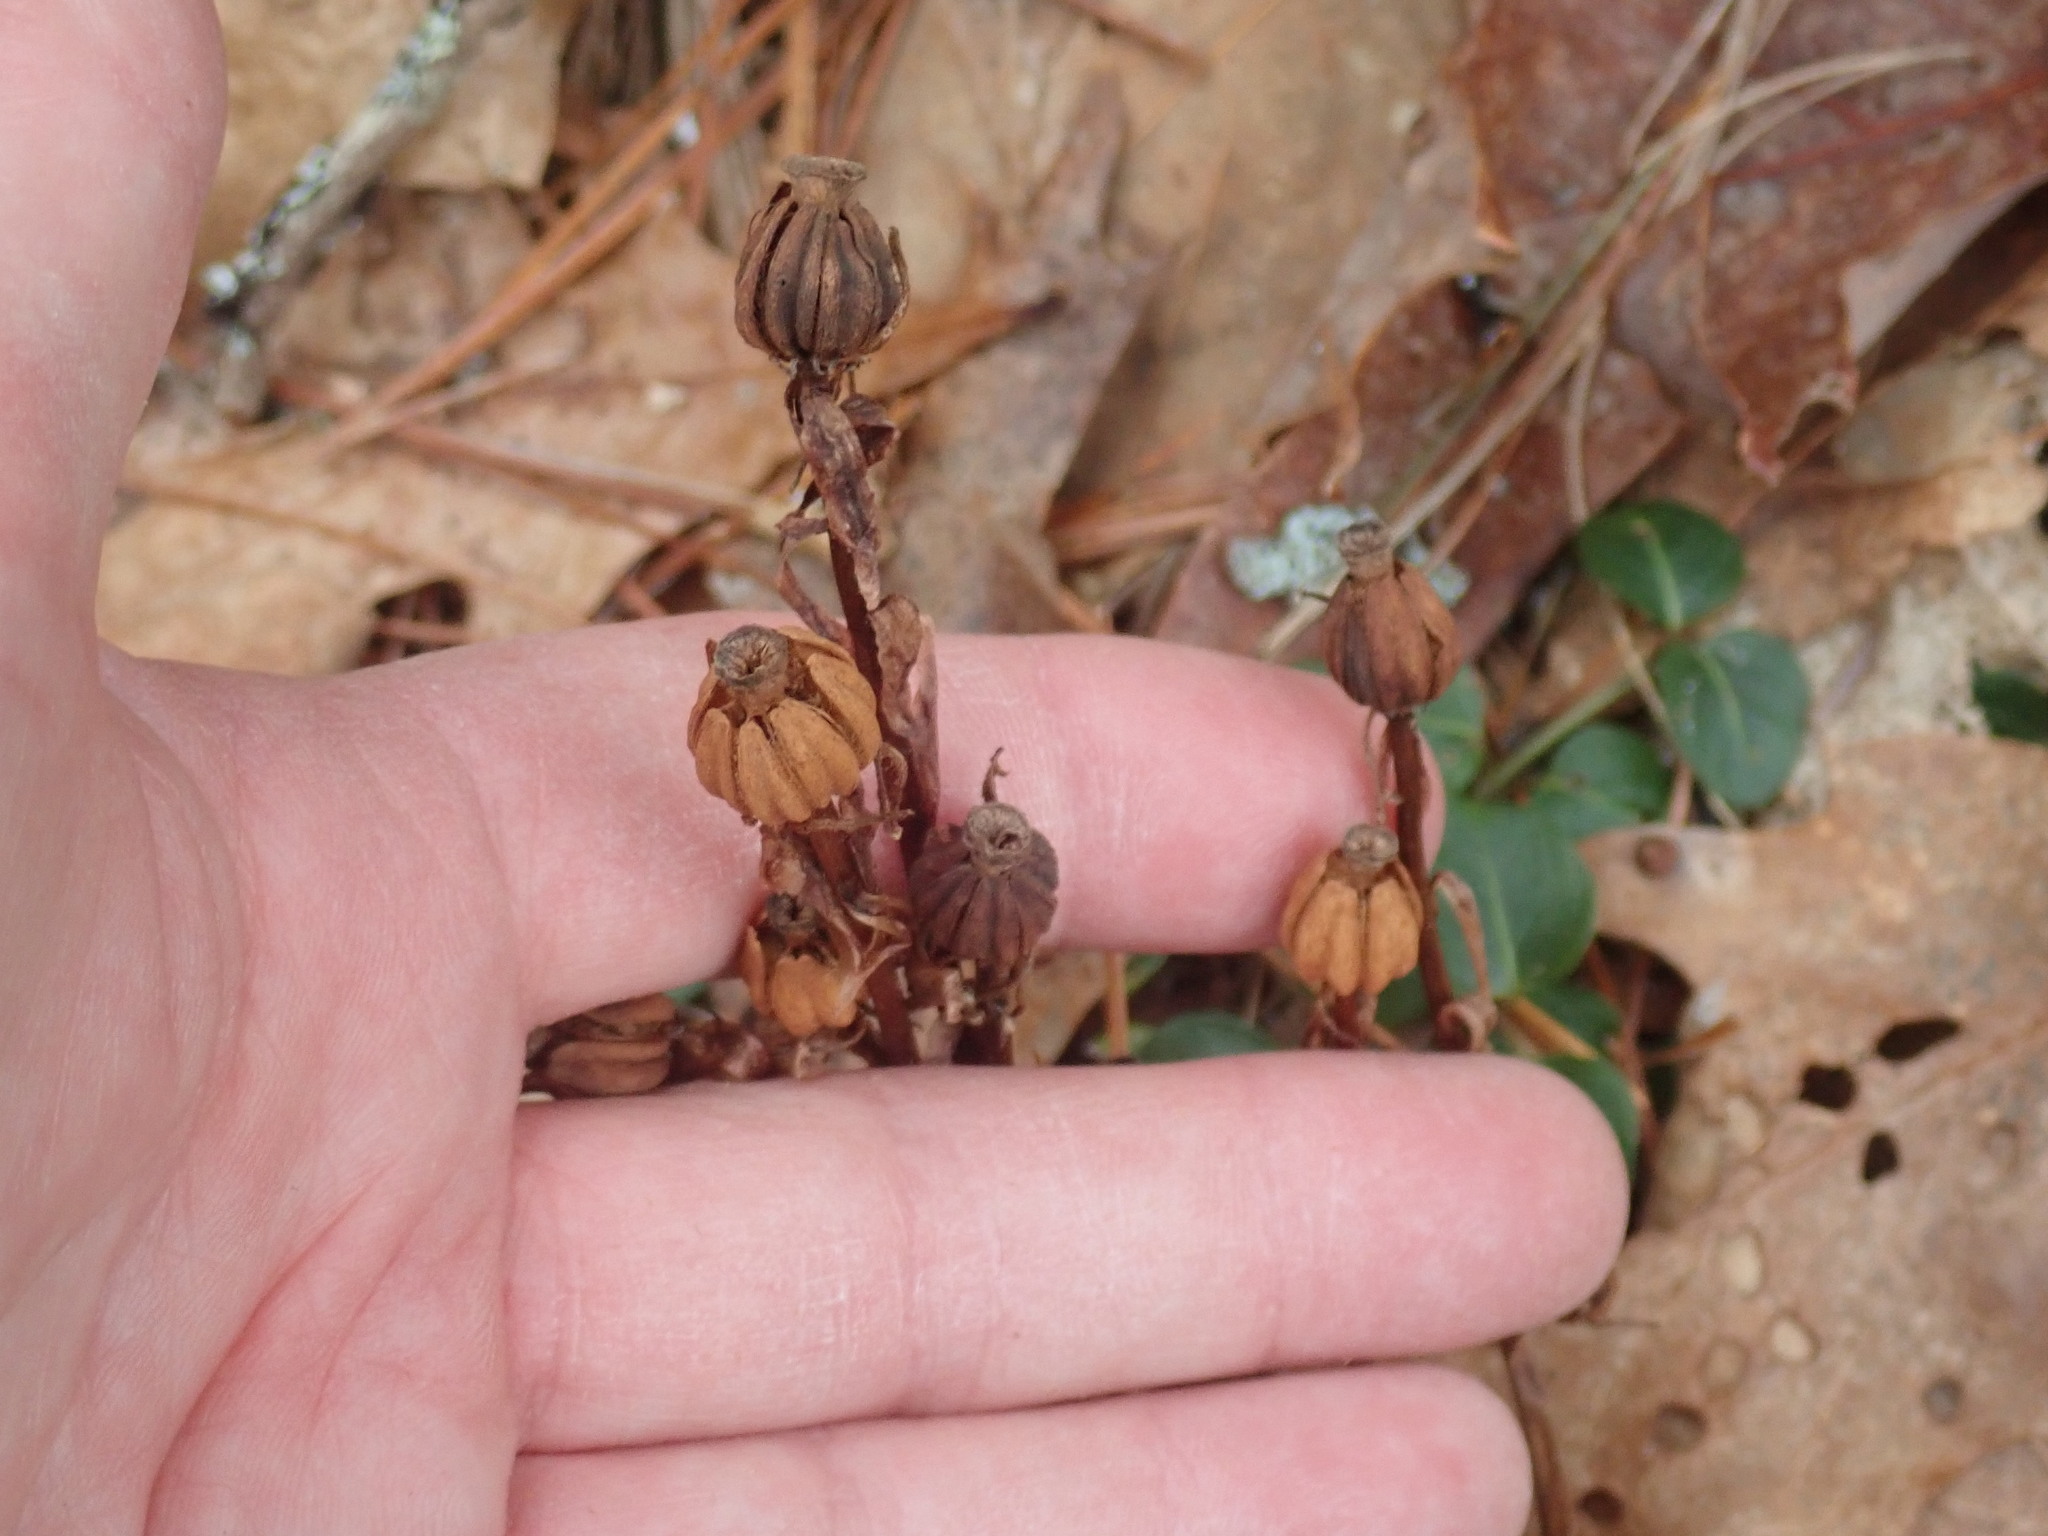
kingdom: Plantae
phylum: Tracheophyta
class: Magnoliopsida
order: Ericales
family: Ericaceae
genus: Monotropa
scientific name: Monotropa uniflora
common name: Convulsion root
